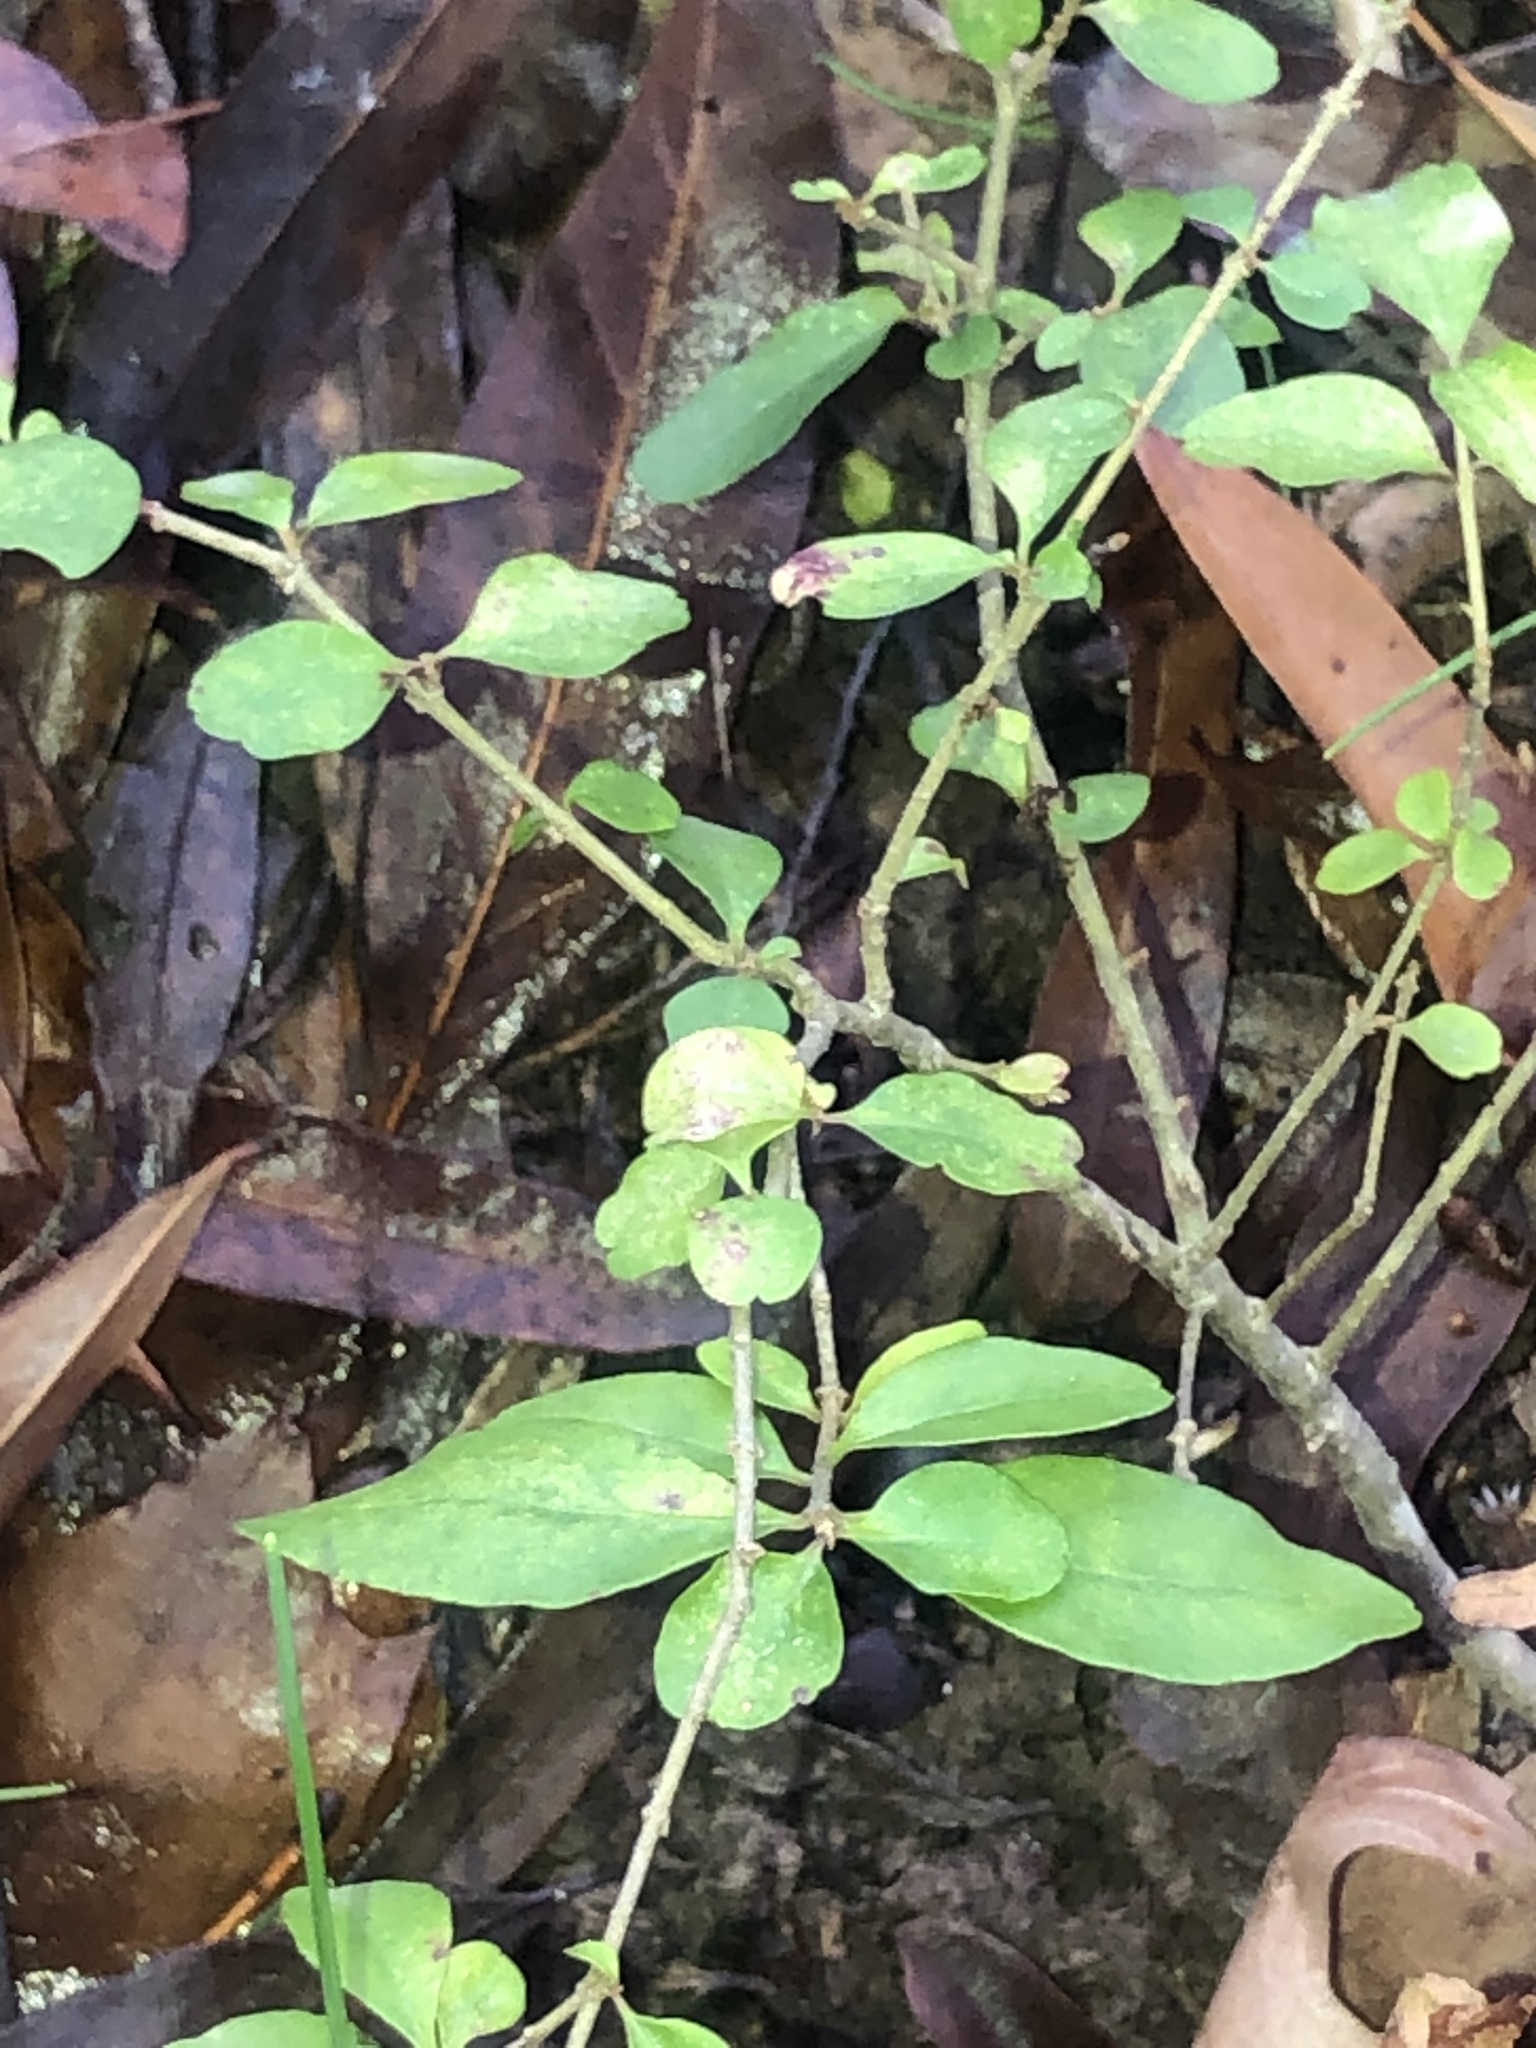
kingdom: Plantae
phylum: Tracheophyta
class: Magnoliopsida
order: Lamiales
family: Oleaceae
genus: Ligustrum
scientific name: Ligustrum sinense
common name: Chinese privet
